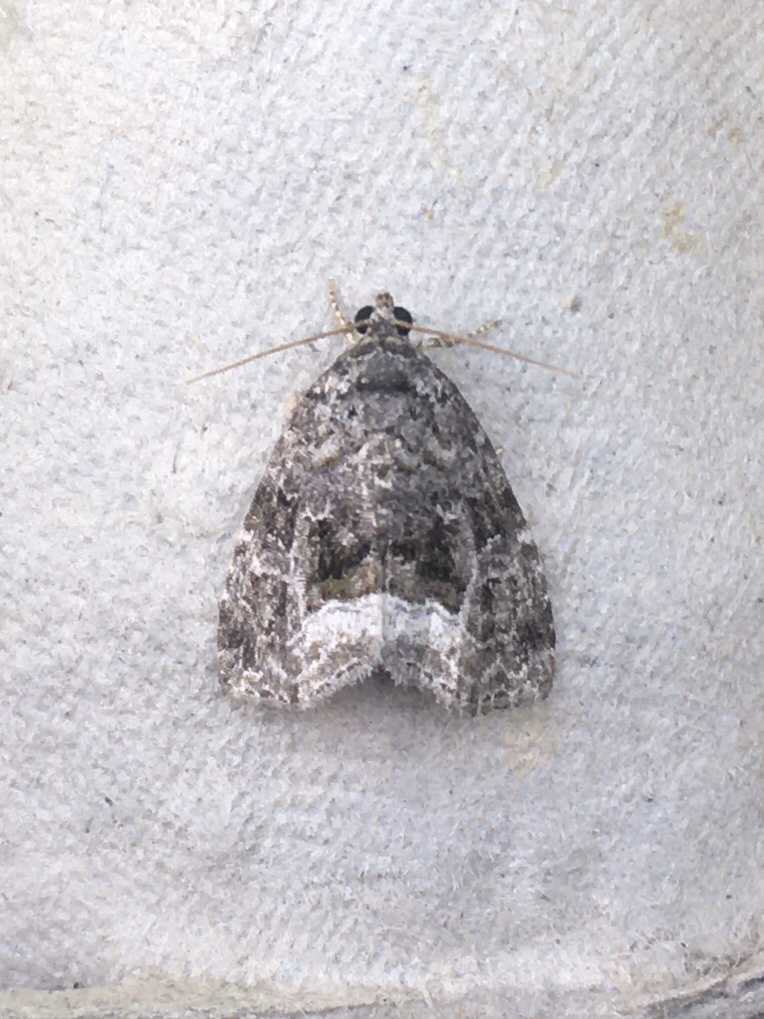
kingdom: Animalia
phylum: Arthropoda
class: Insecta
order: Lepidoptera
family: Noctuidae
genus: Protodeltote
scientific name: Protodeltote muscosula
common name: Large mossy glyph
